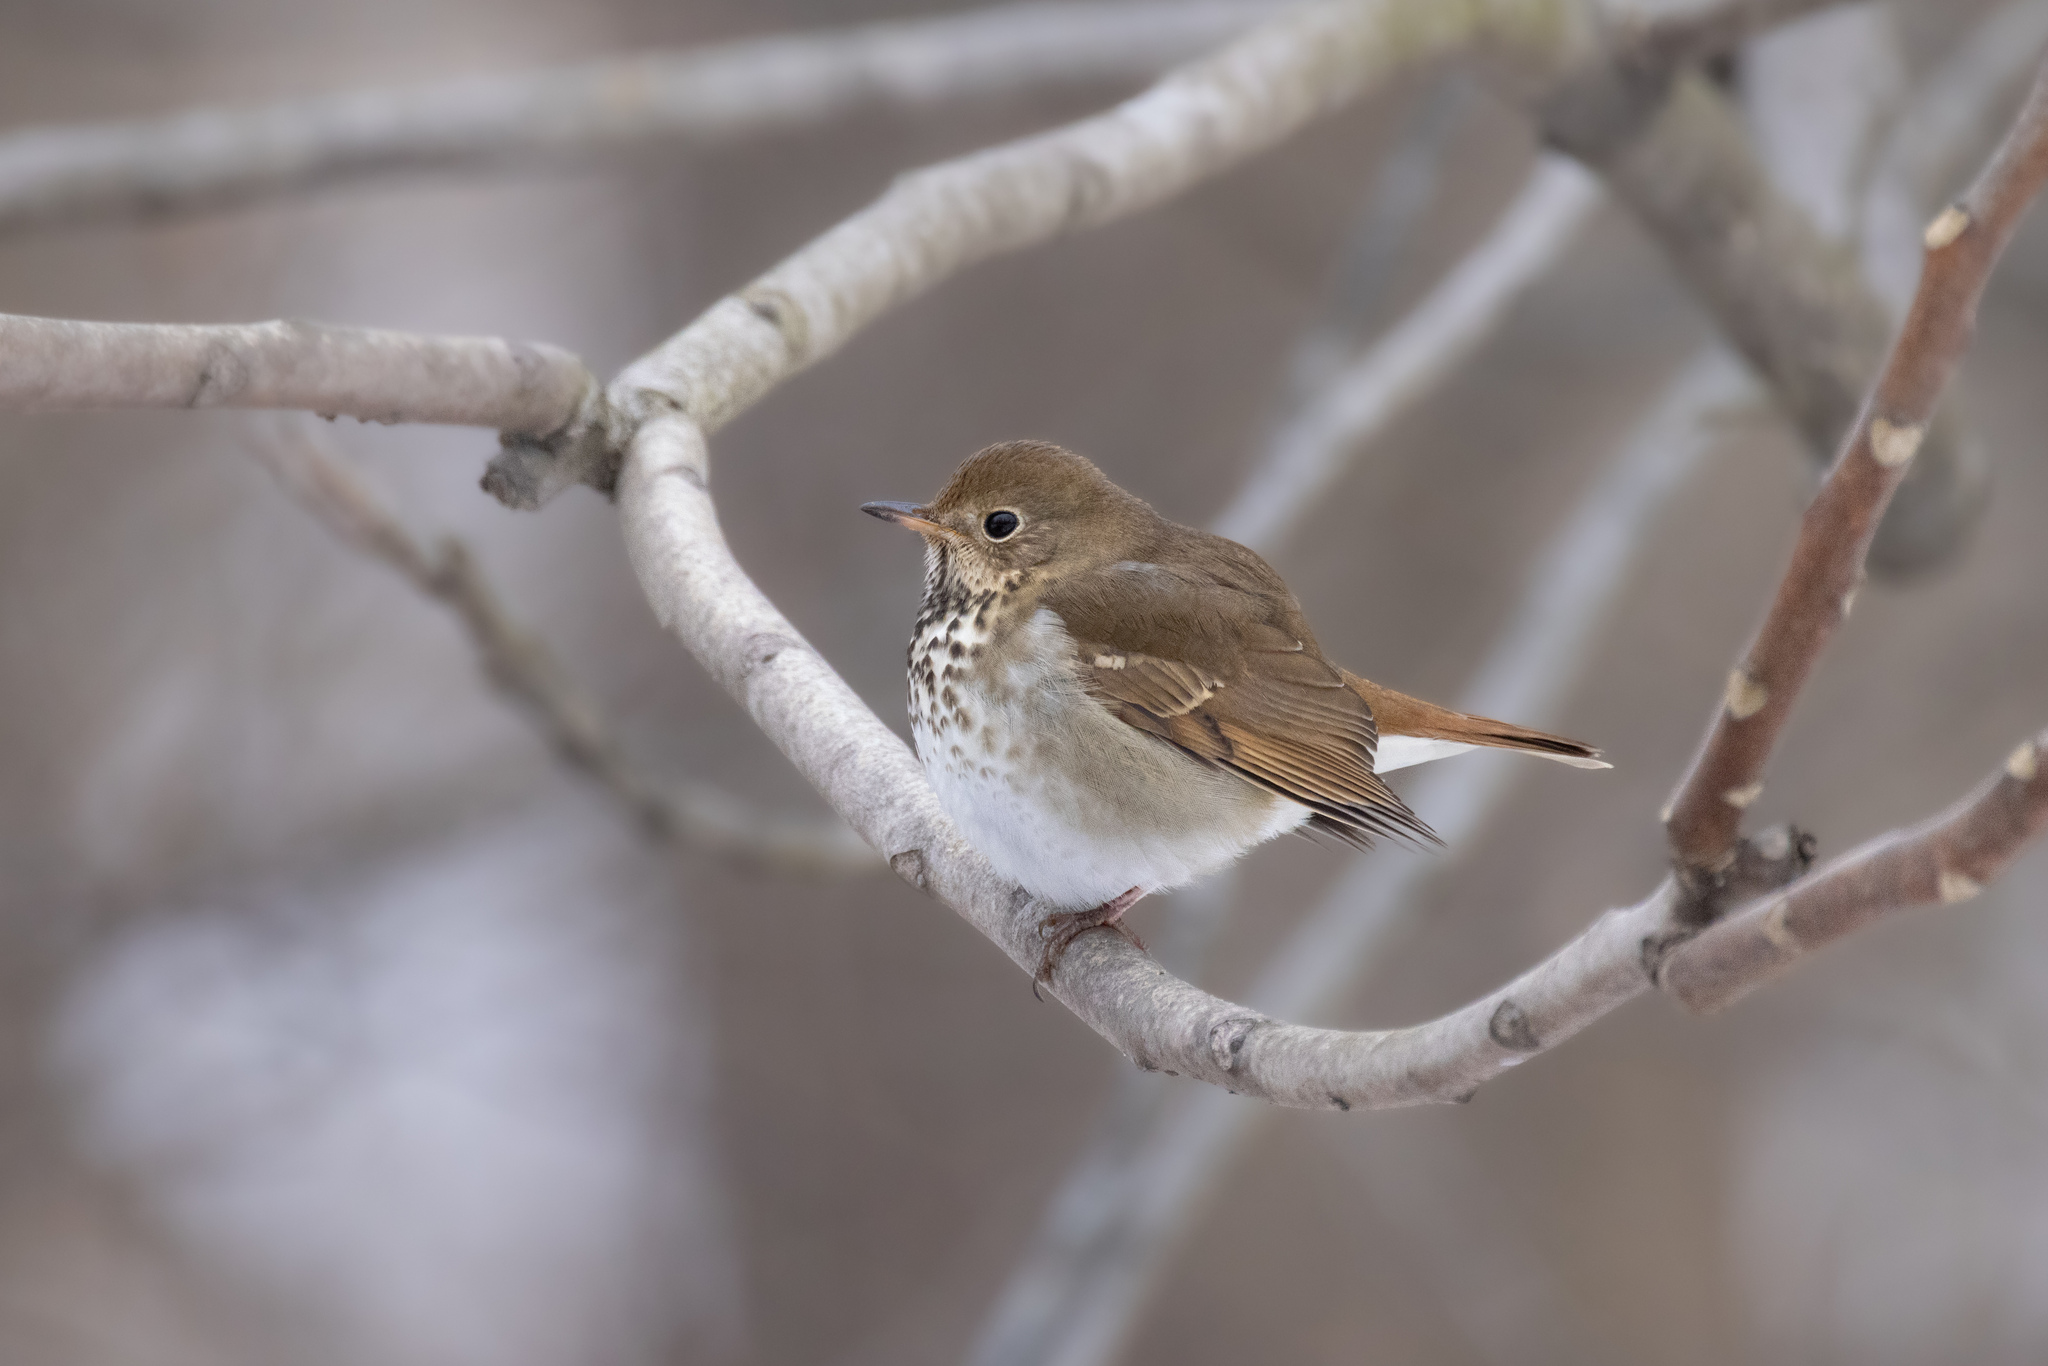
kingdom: Animalia
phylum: Chordata
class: Aves
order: Passeriformes
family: Turdidae
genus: Catharus
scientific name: Catharus guttatus
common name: Hermit thrush
